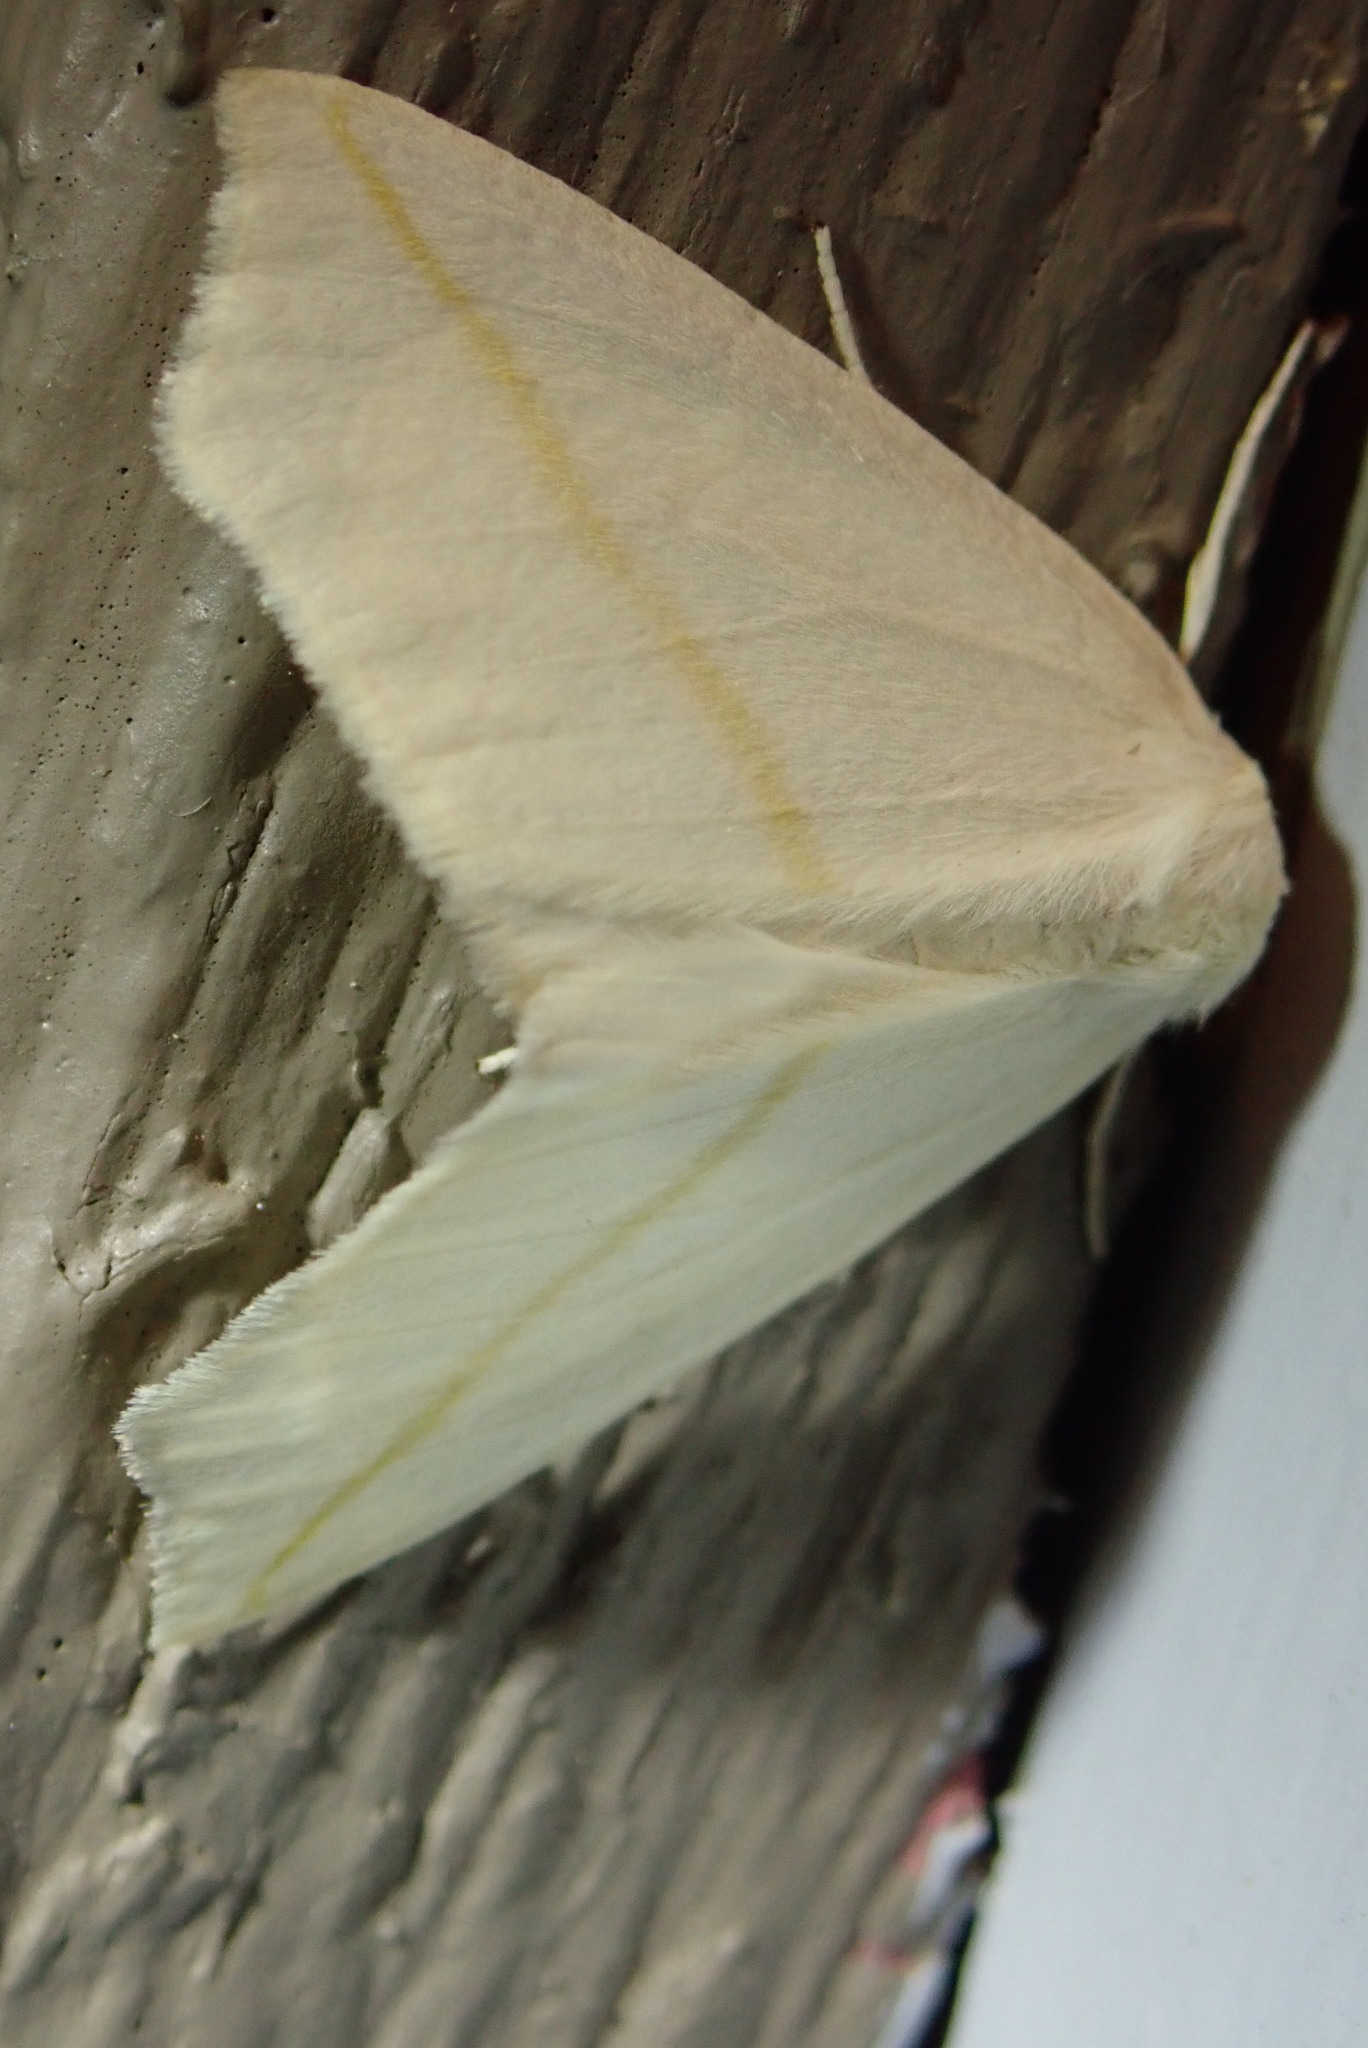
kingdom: Animalia
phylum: Arthropoda
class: Insecta
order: Lepidoptera
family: Geometridae
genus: Tetracis
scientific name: Tetracis cachexiata
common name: White slant-line
